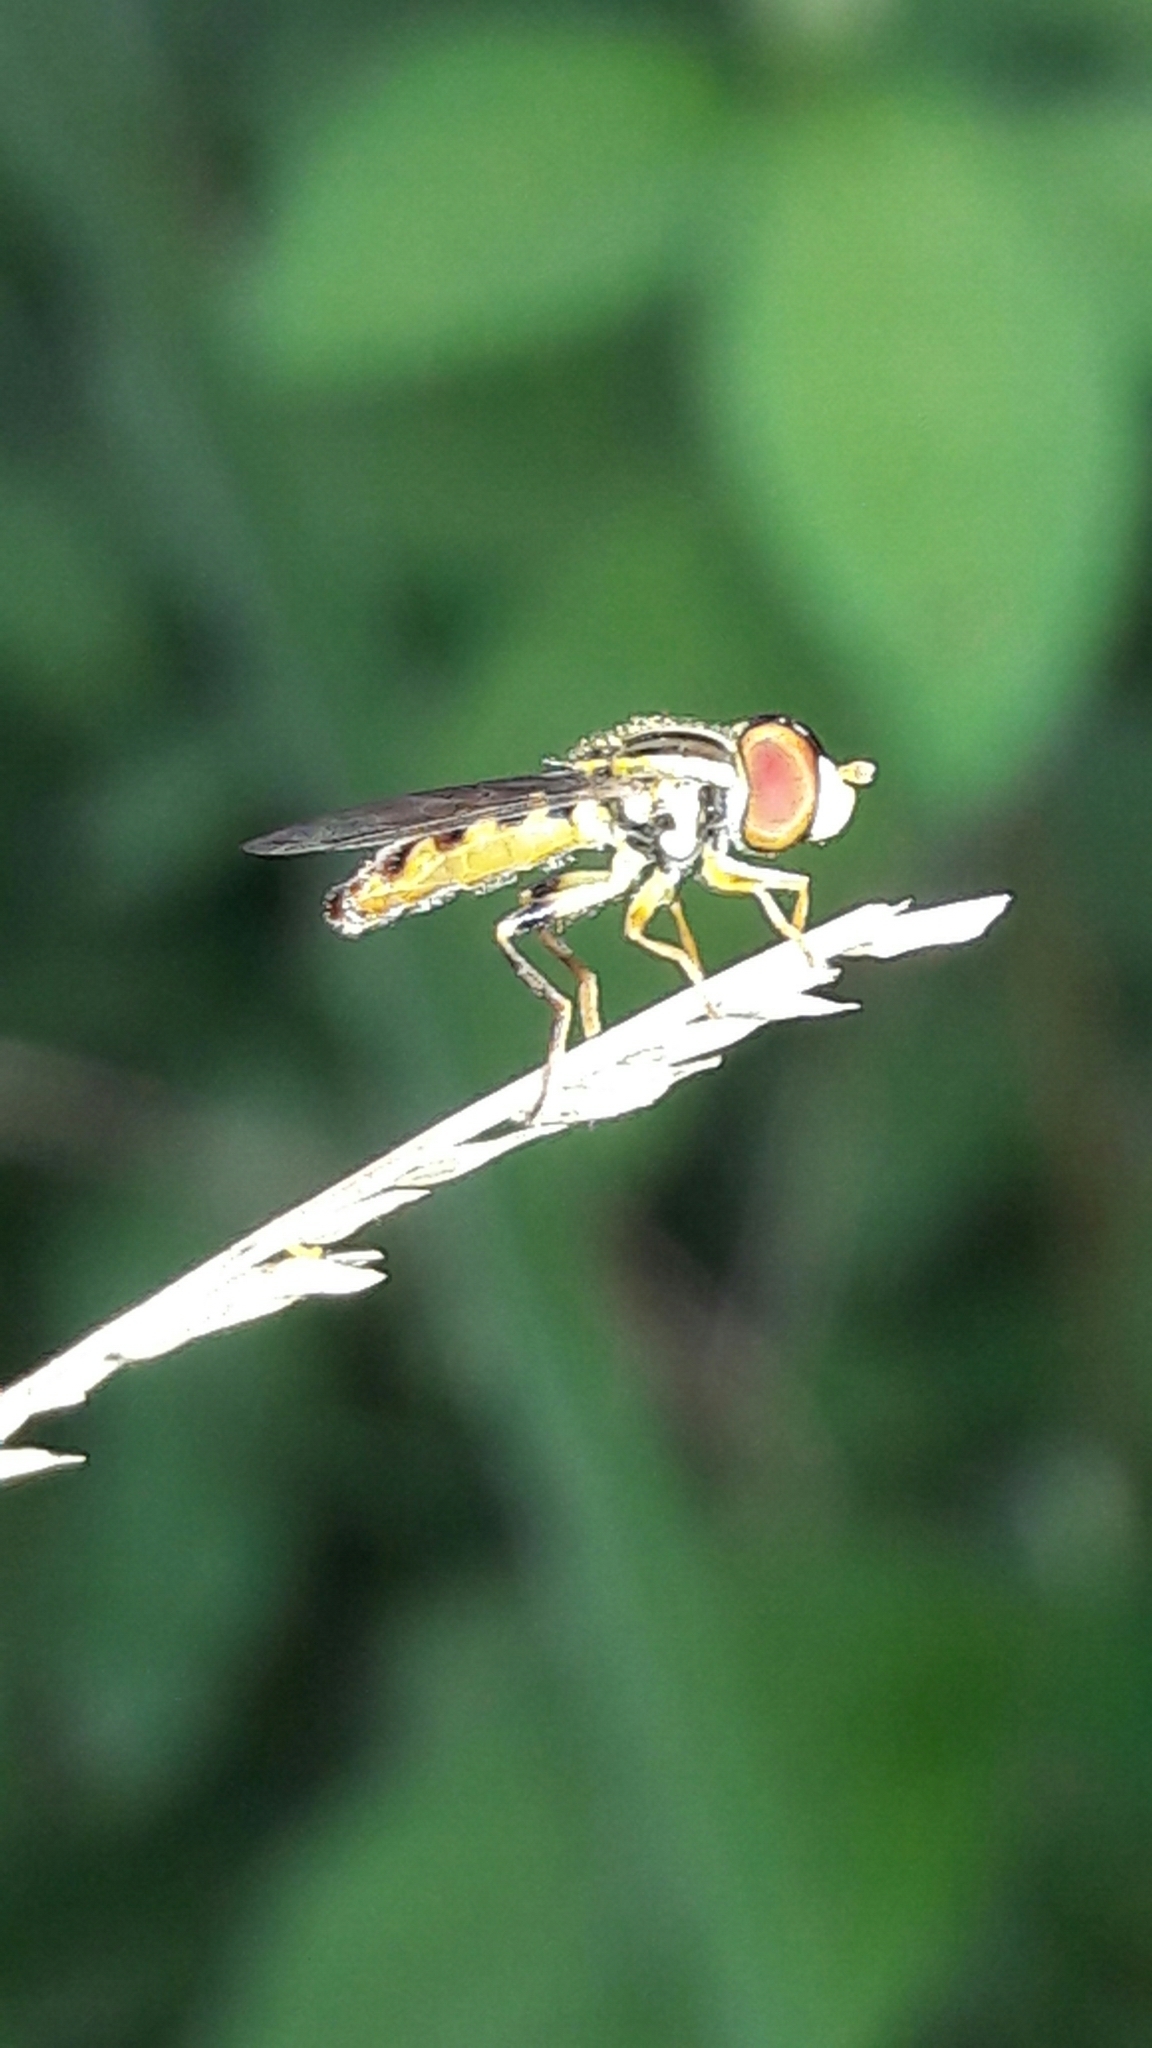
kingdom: Animalia
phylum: Arthropoda
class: Insecta
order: Diptera
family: Syrphidae
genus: Toxomerus
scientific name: Toxomerus virgulatus
